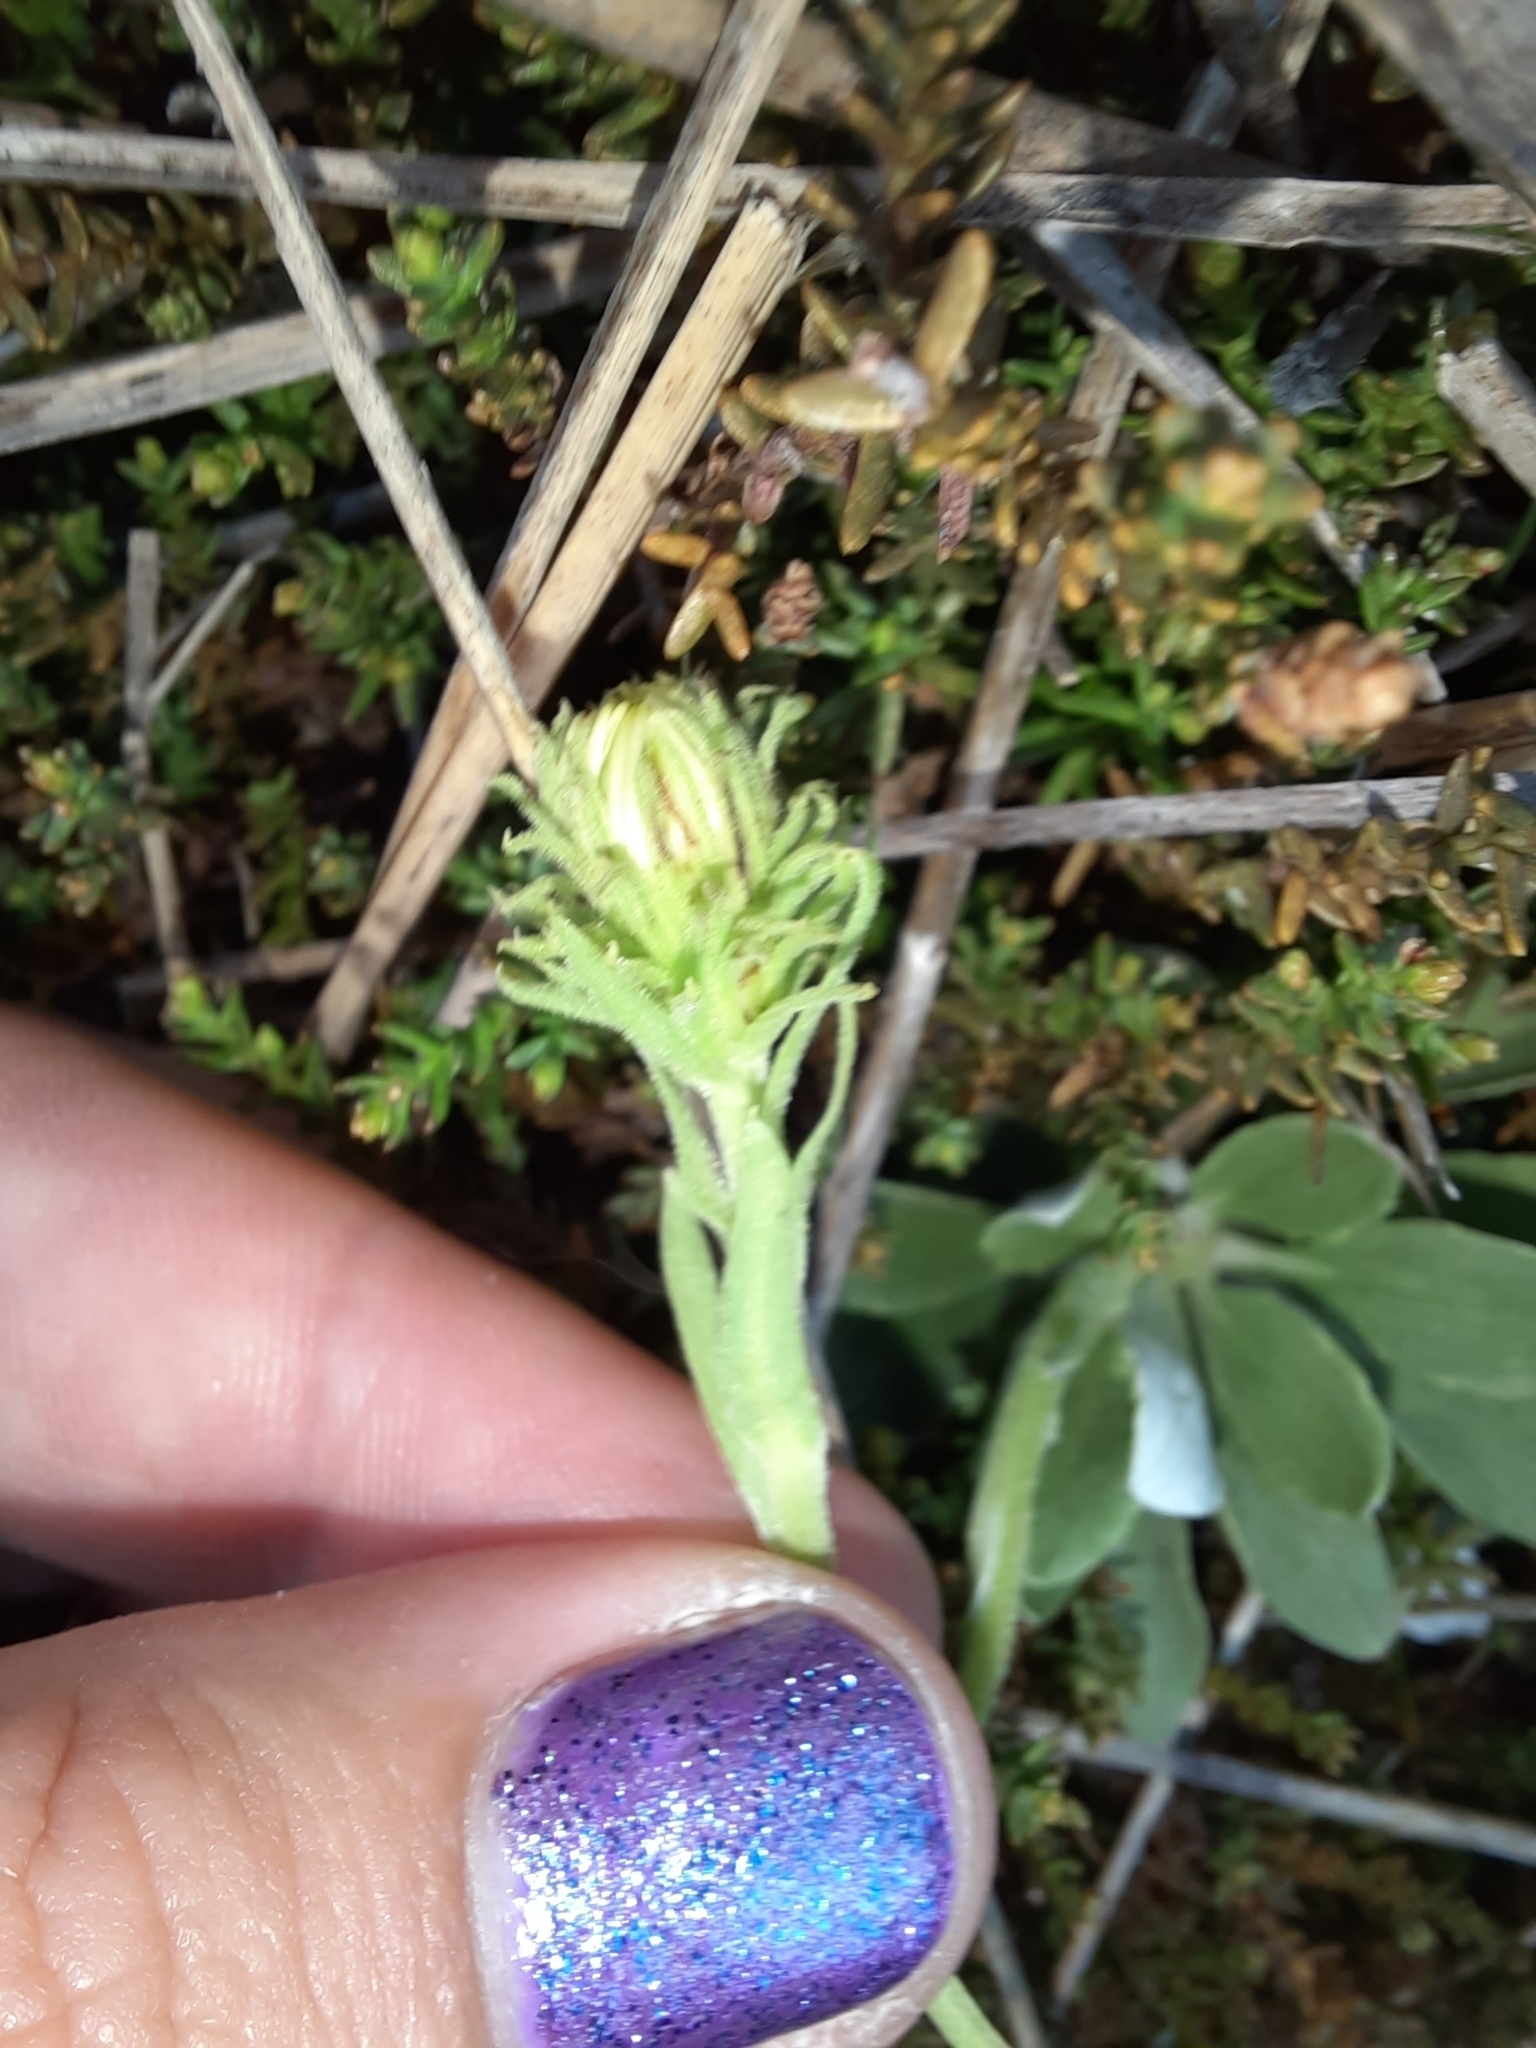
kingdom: Plantae
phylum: Tracheophyta
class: Magnoliopsida
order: Asterales
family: Asteraceae
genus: Celmisia
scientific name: Celmisia discolor
